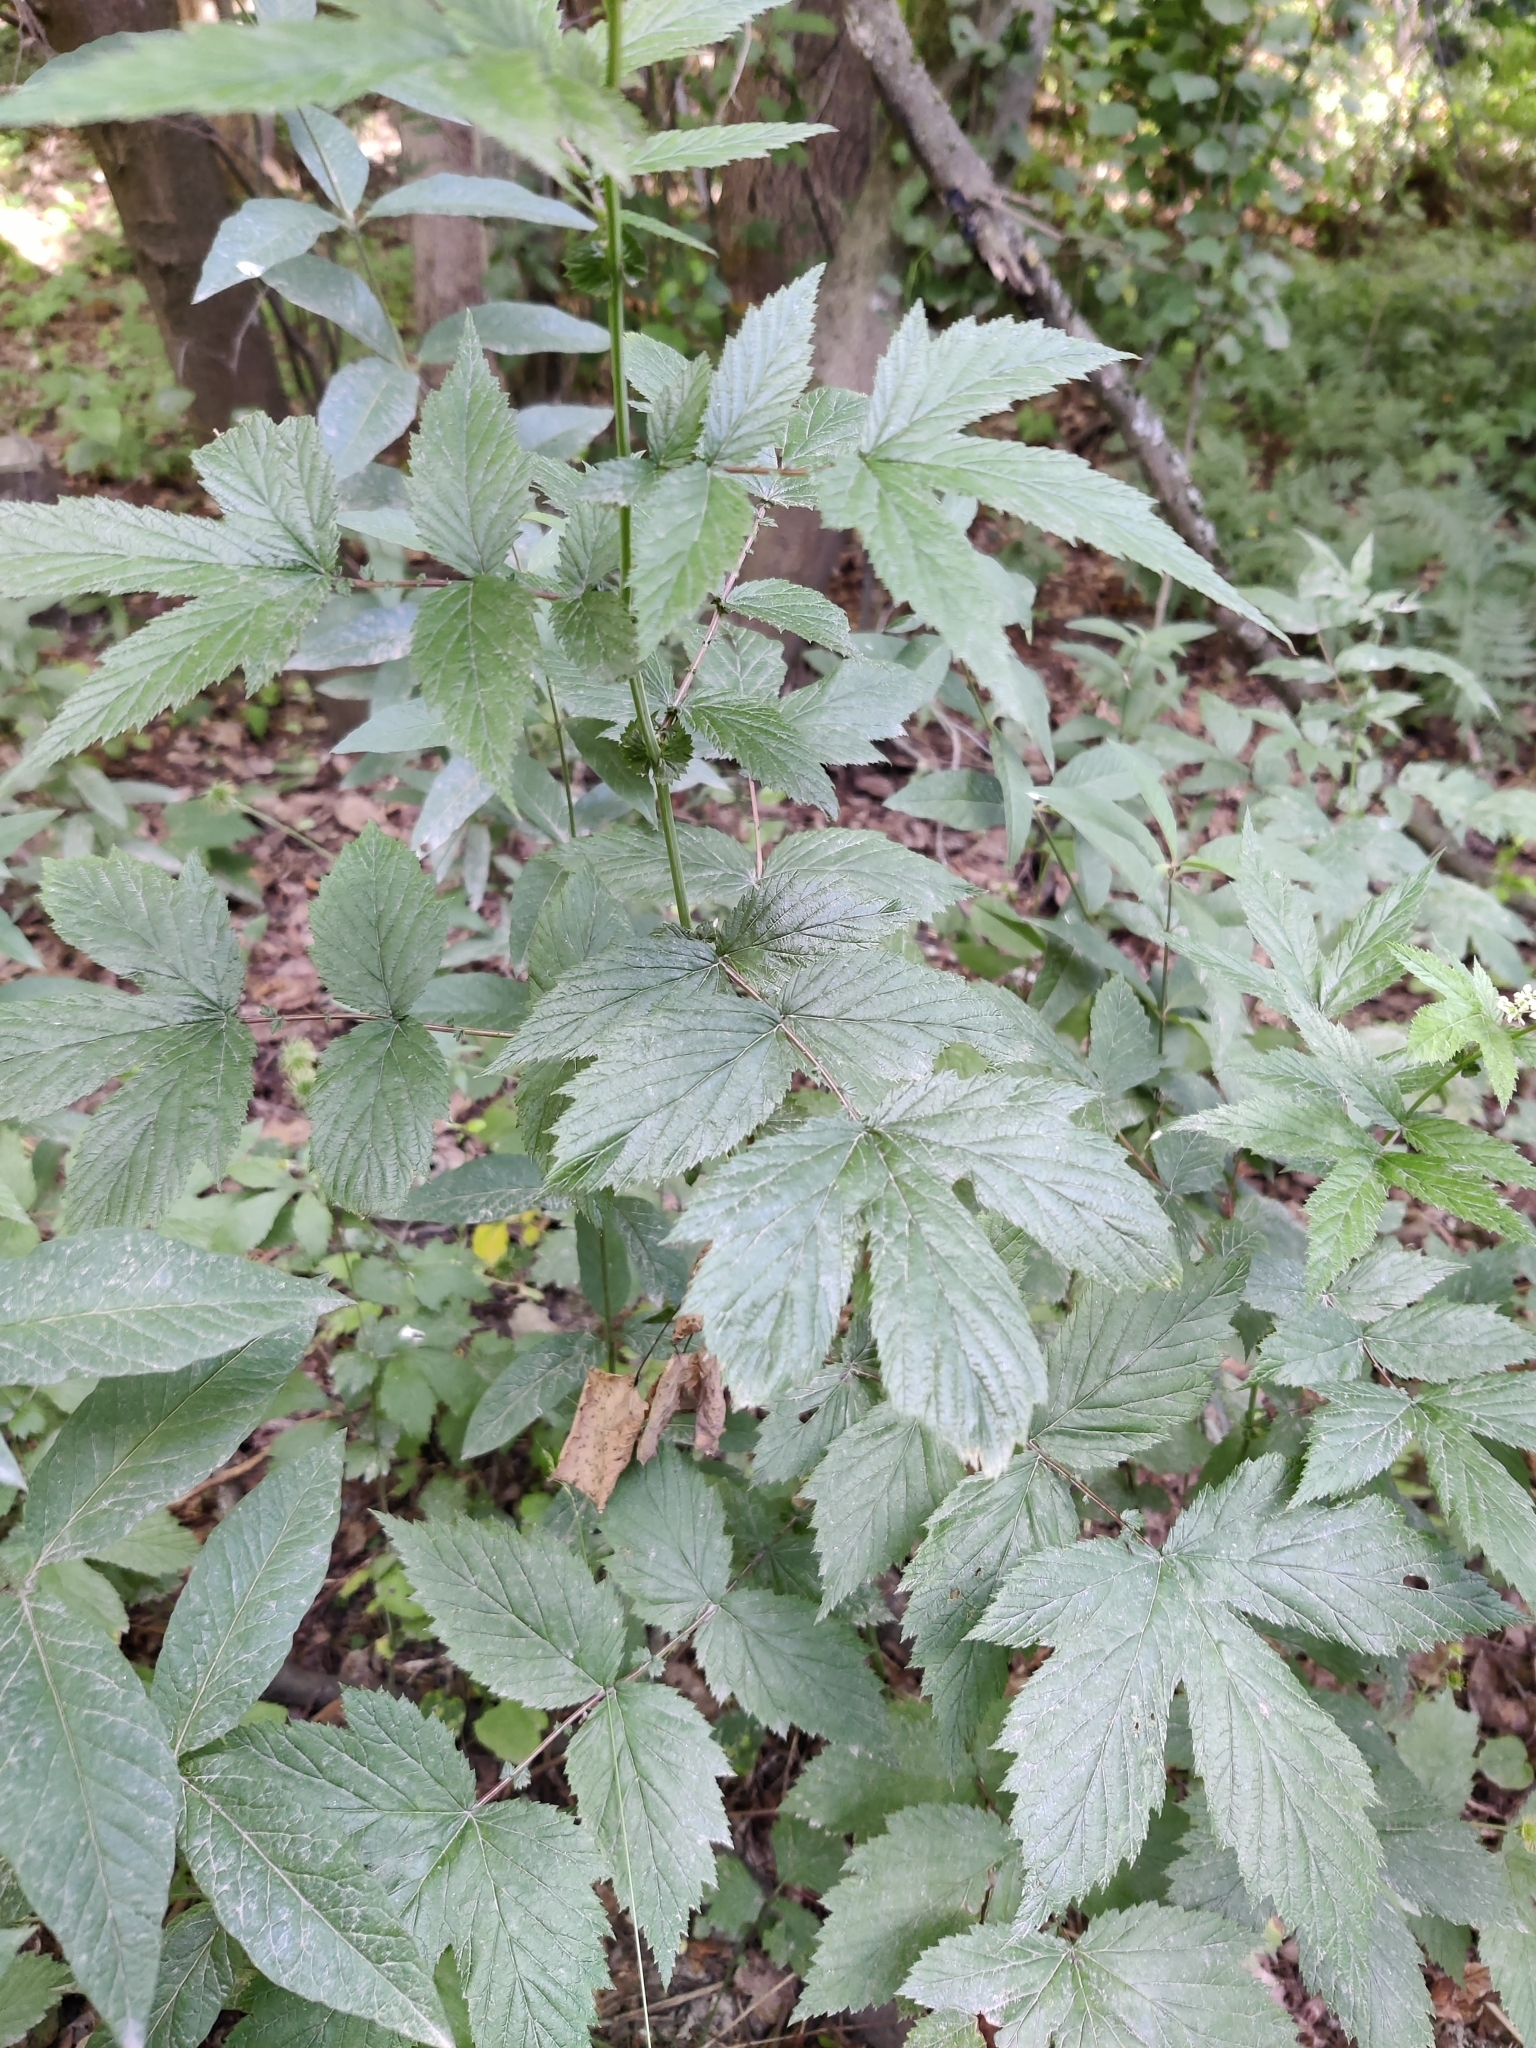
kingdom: Plantae
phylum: Tracheophyta
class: Magnoliopsida
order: Rosales
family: Rosaceae
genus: Filipendula
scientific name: Filipendula ulmaria
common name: Meadowsweet
